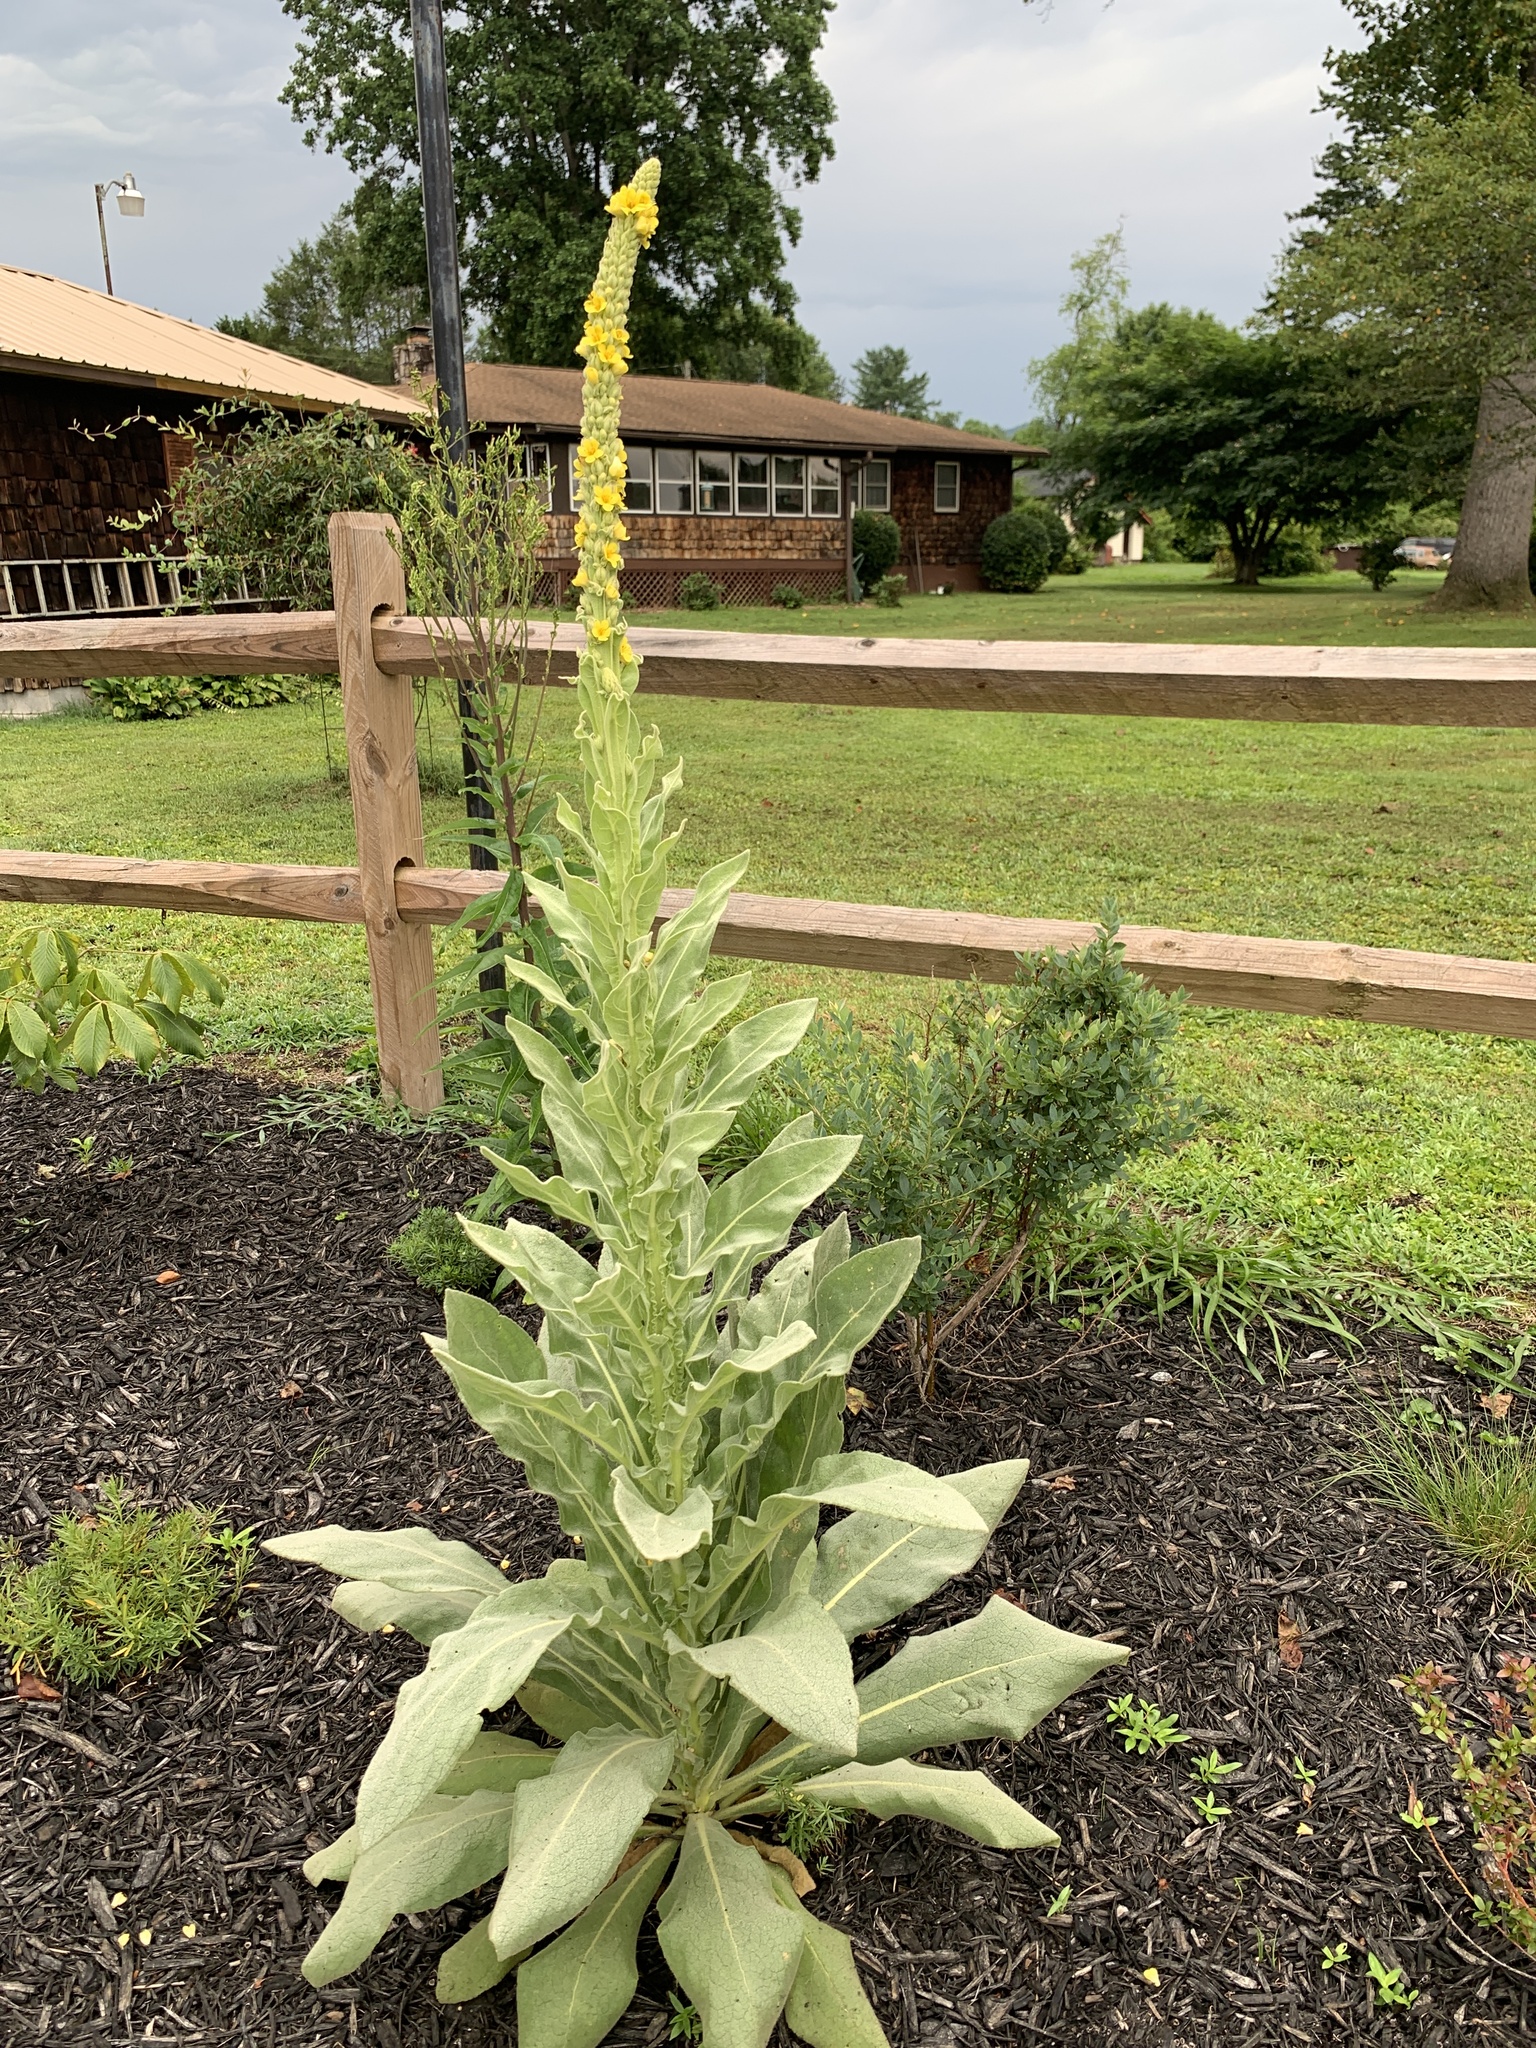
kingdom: Plantae
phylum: Tracheophyta
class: Magnoliopsida
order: Lamiales
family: Scrophulariaceae
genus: Verbascum
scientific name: Verbascum thapsus
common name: Common mullein
